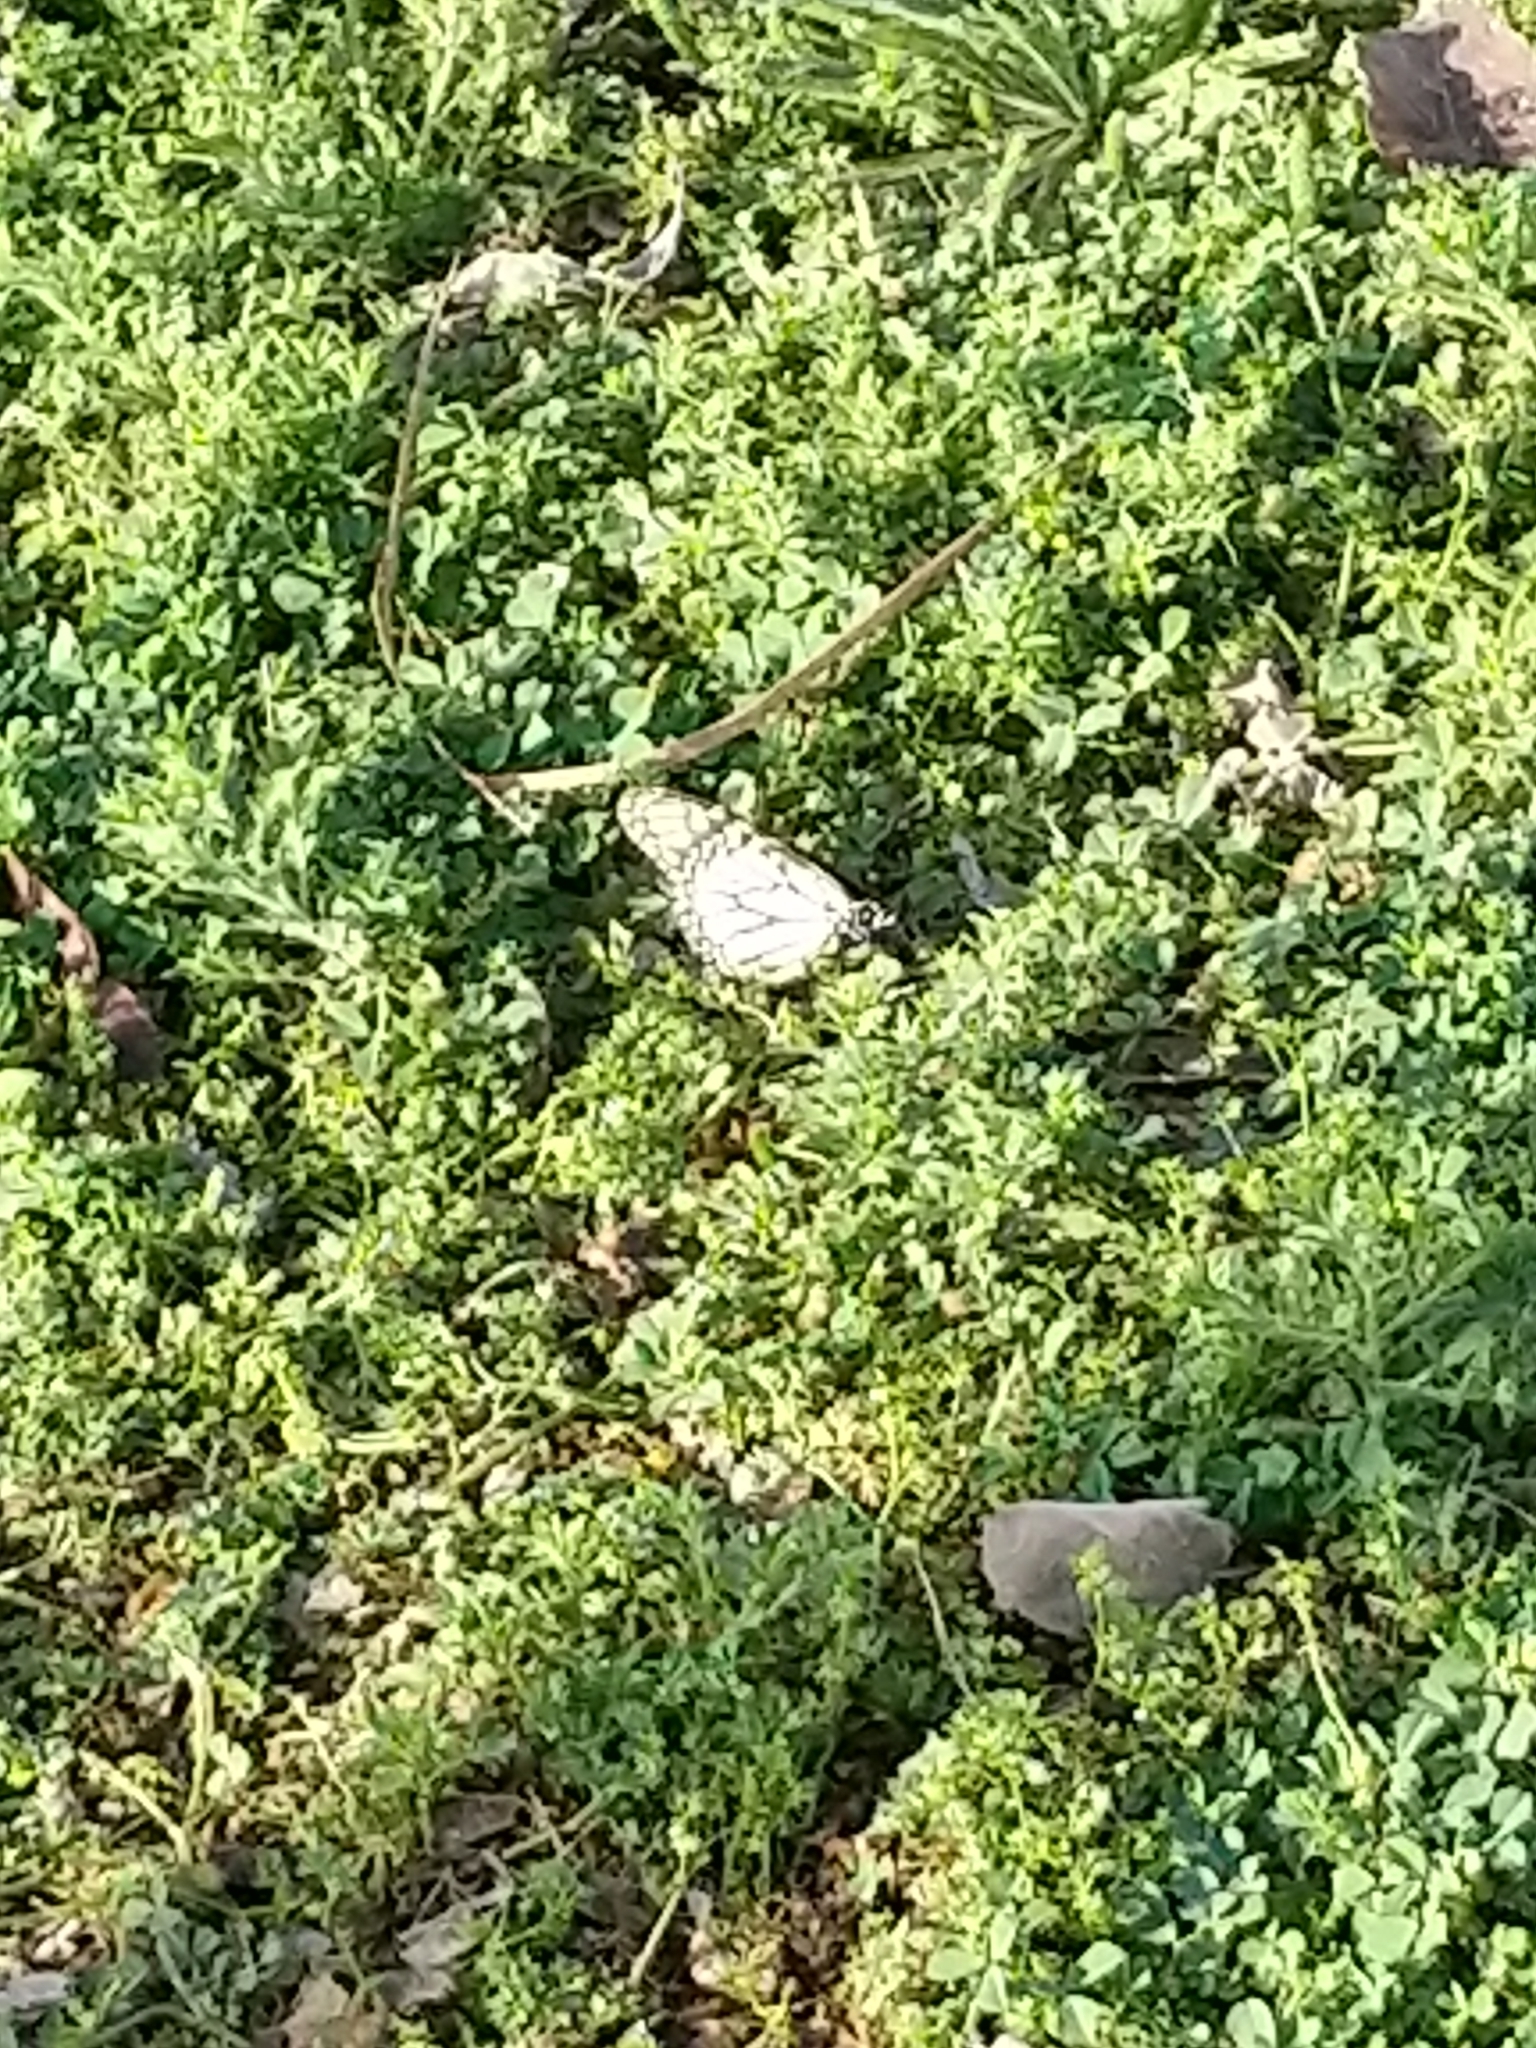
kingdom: Animalia
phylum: Arthropoda
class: Insecta
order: Lepidoptera
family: Nymphalidae
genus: Danaus
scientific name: Danaus plexippus
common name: Monarch
